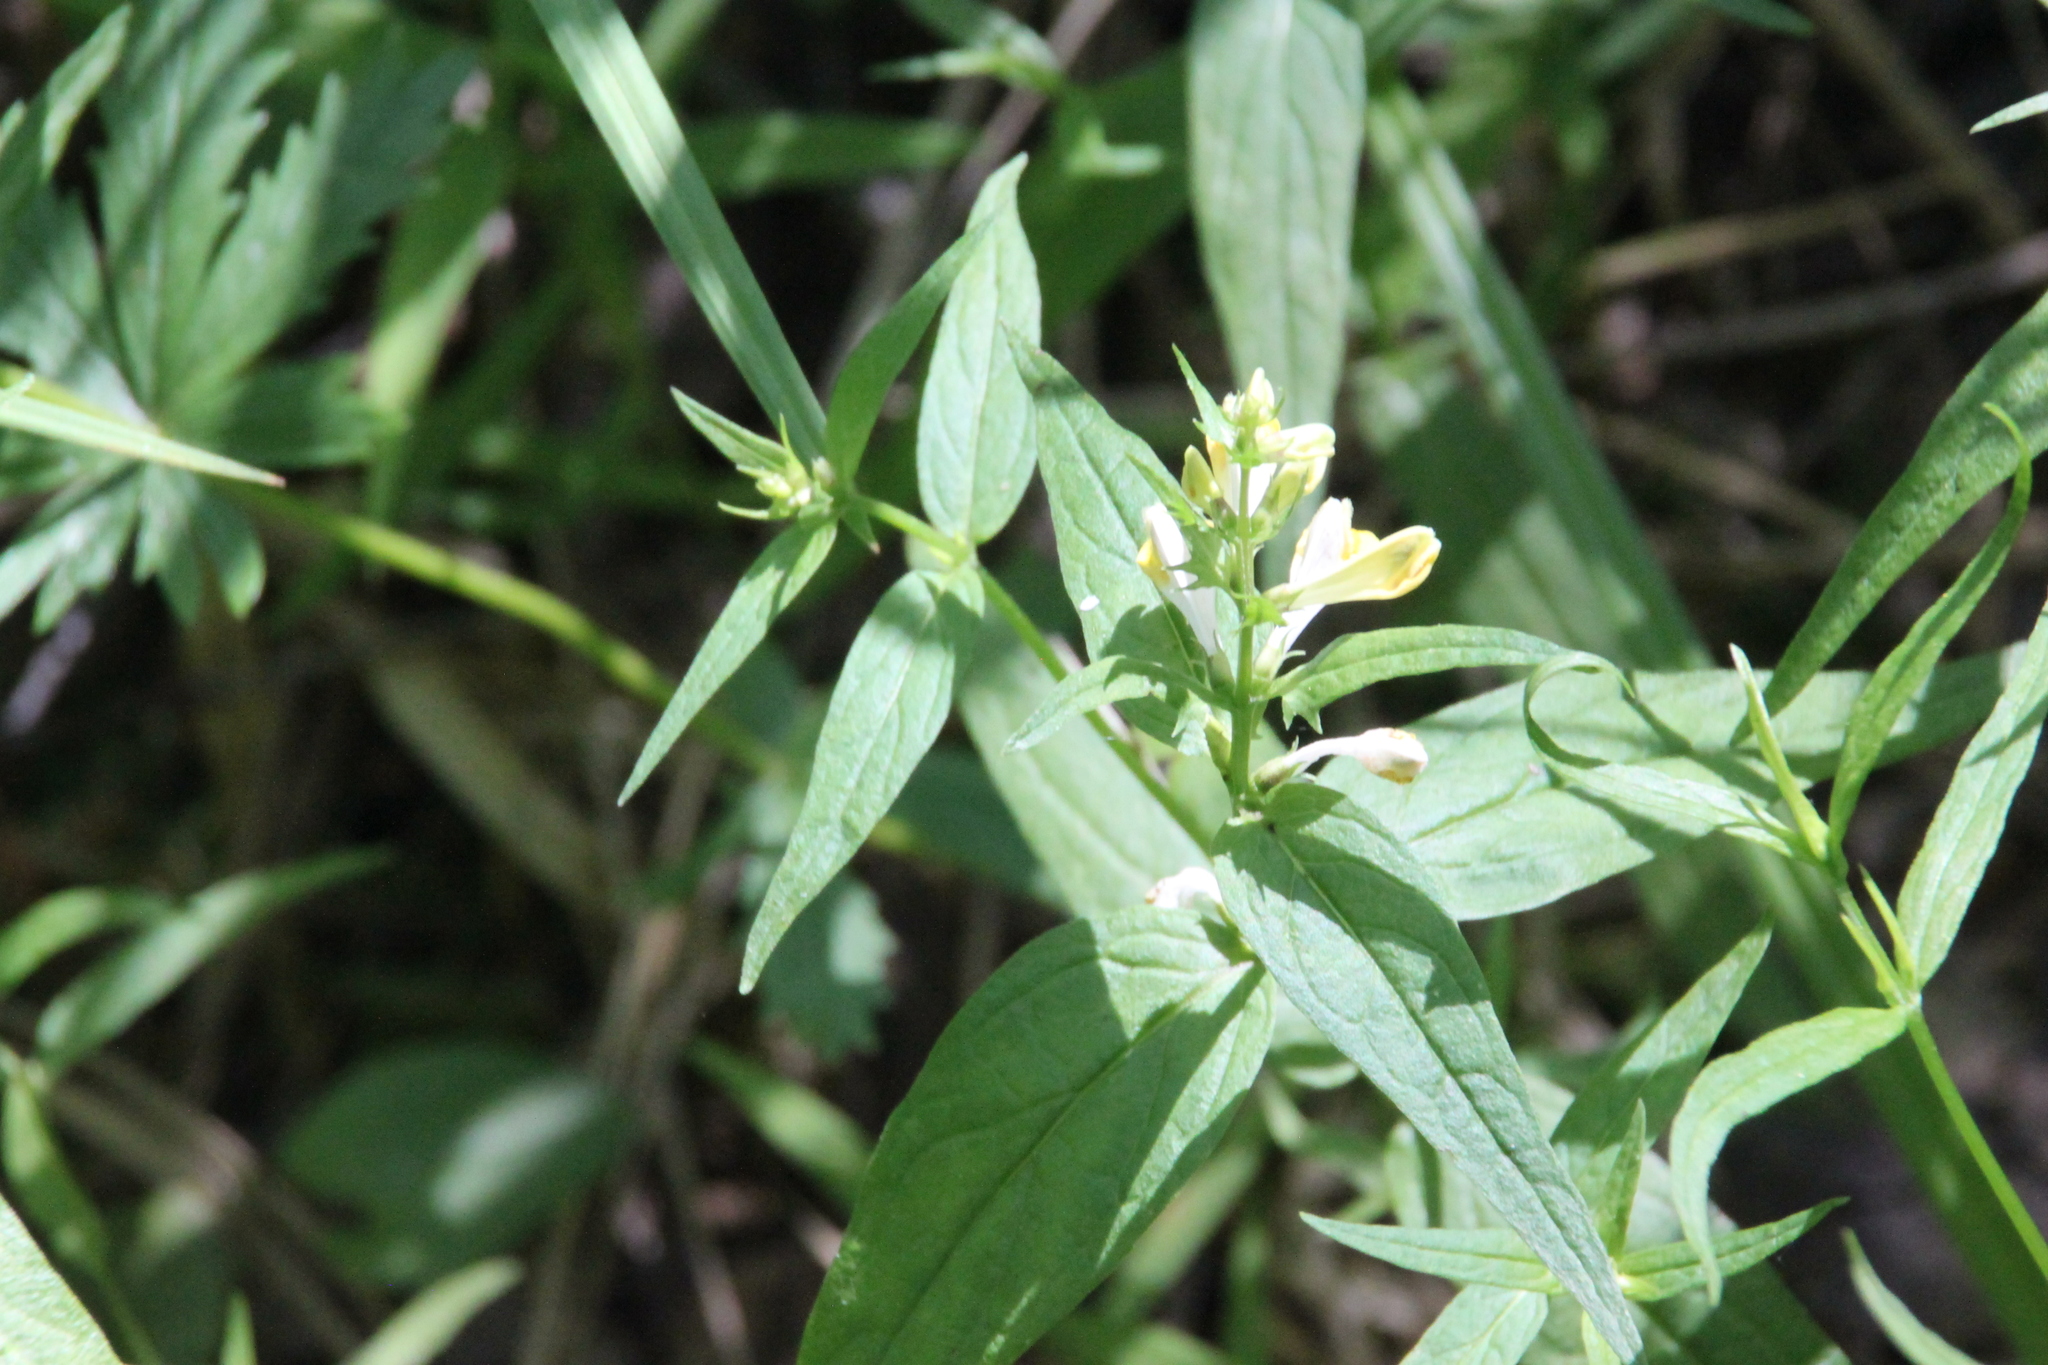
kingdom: Plantae
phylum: Tracheophyta
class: Magnoliopsida
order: Lamiales
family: Orobanchaceae
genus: Melampyrum
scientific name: Melampyrum pratense
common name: Common cow-wheat
